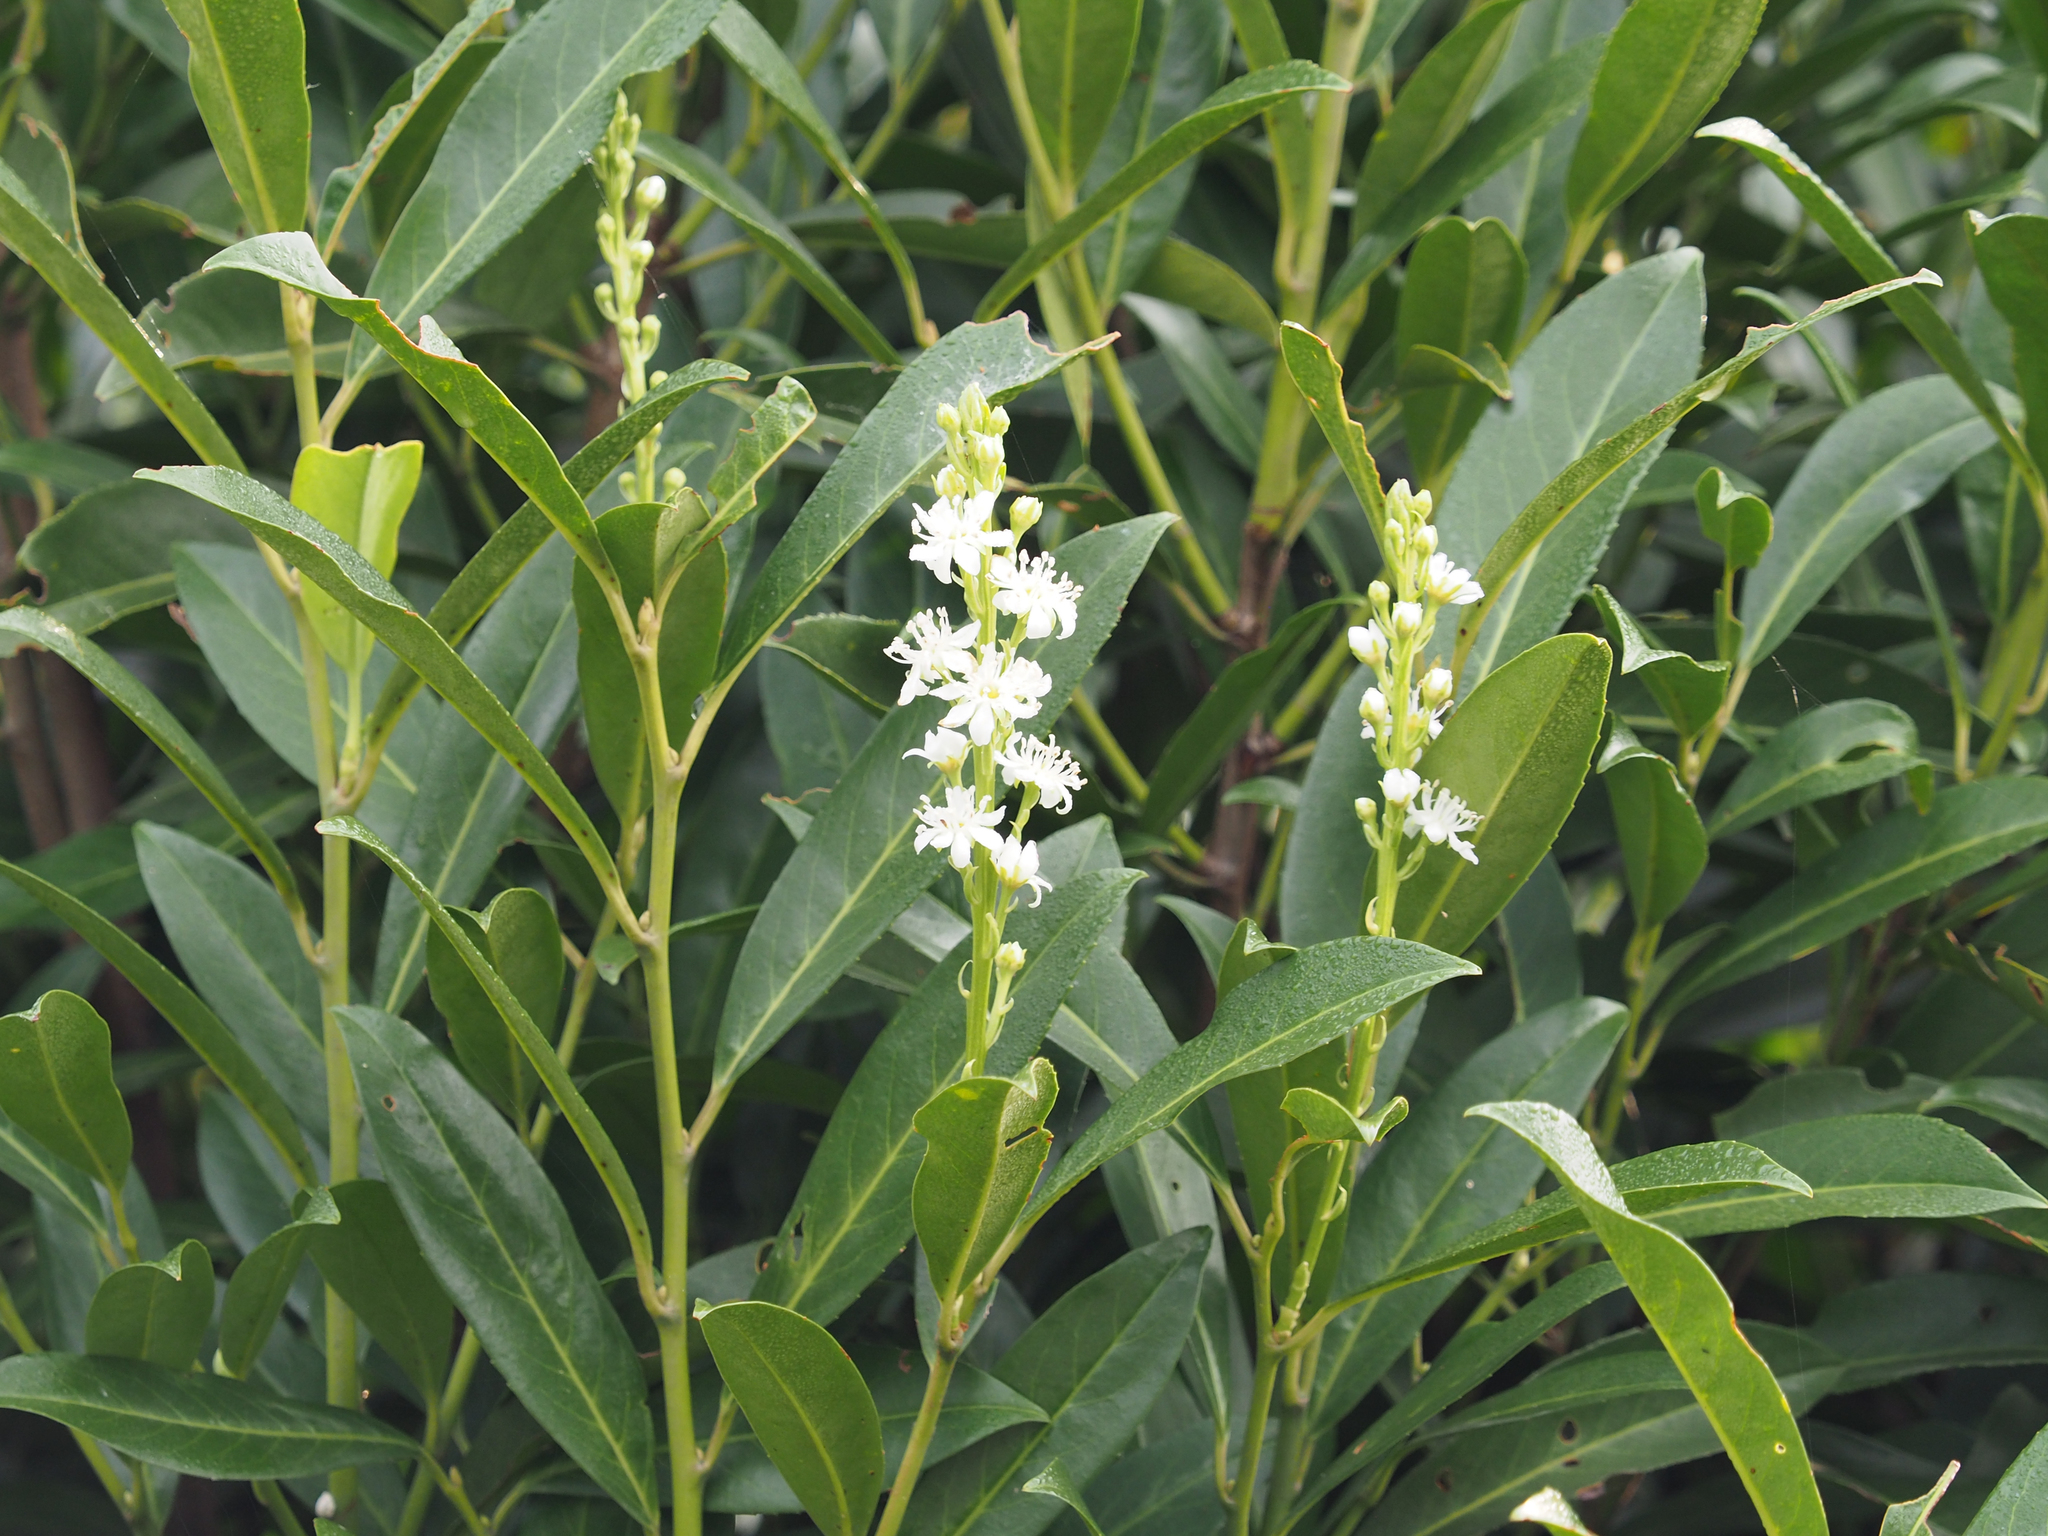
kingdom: Plantae
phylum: Tracheophyta
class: Magnoliopsida
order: Rosales
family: Rosaceae
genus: Prunus
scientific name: Prunus laurocerasus
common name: Cherry laurel
